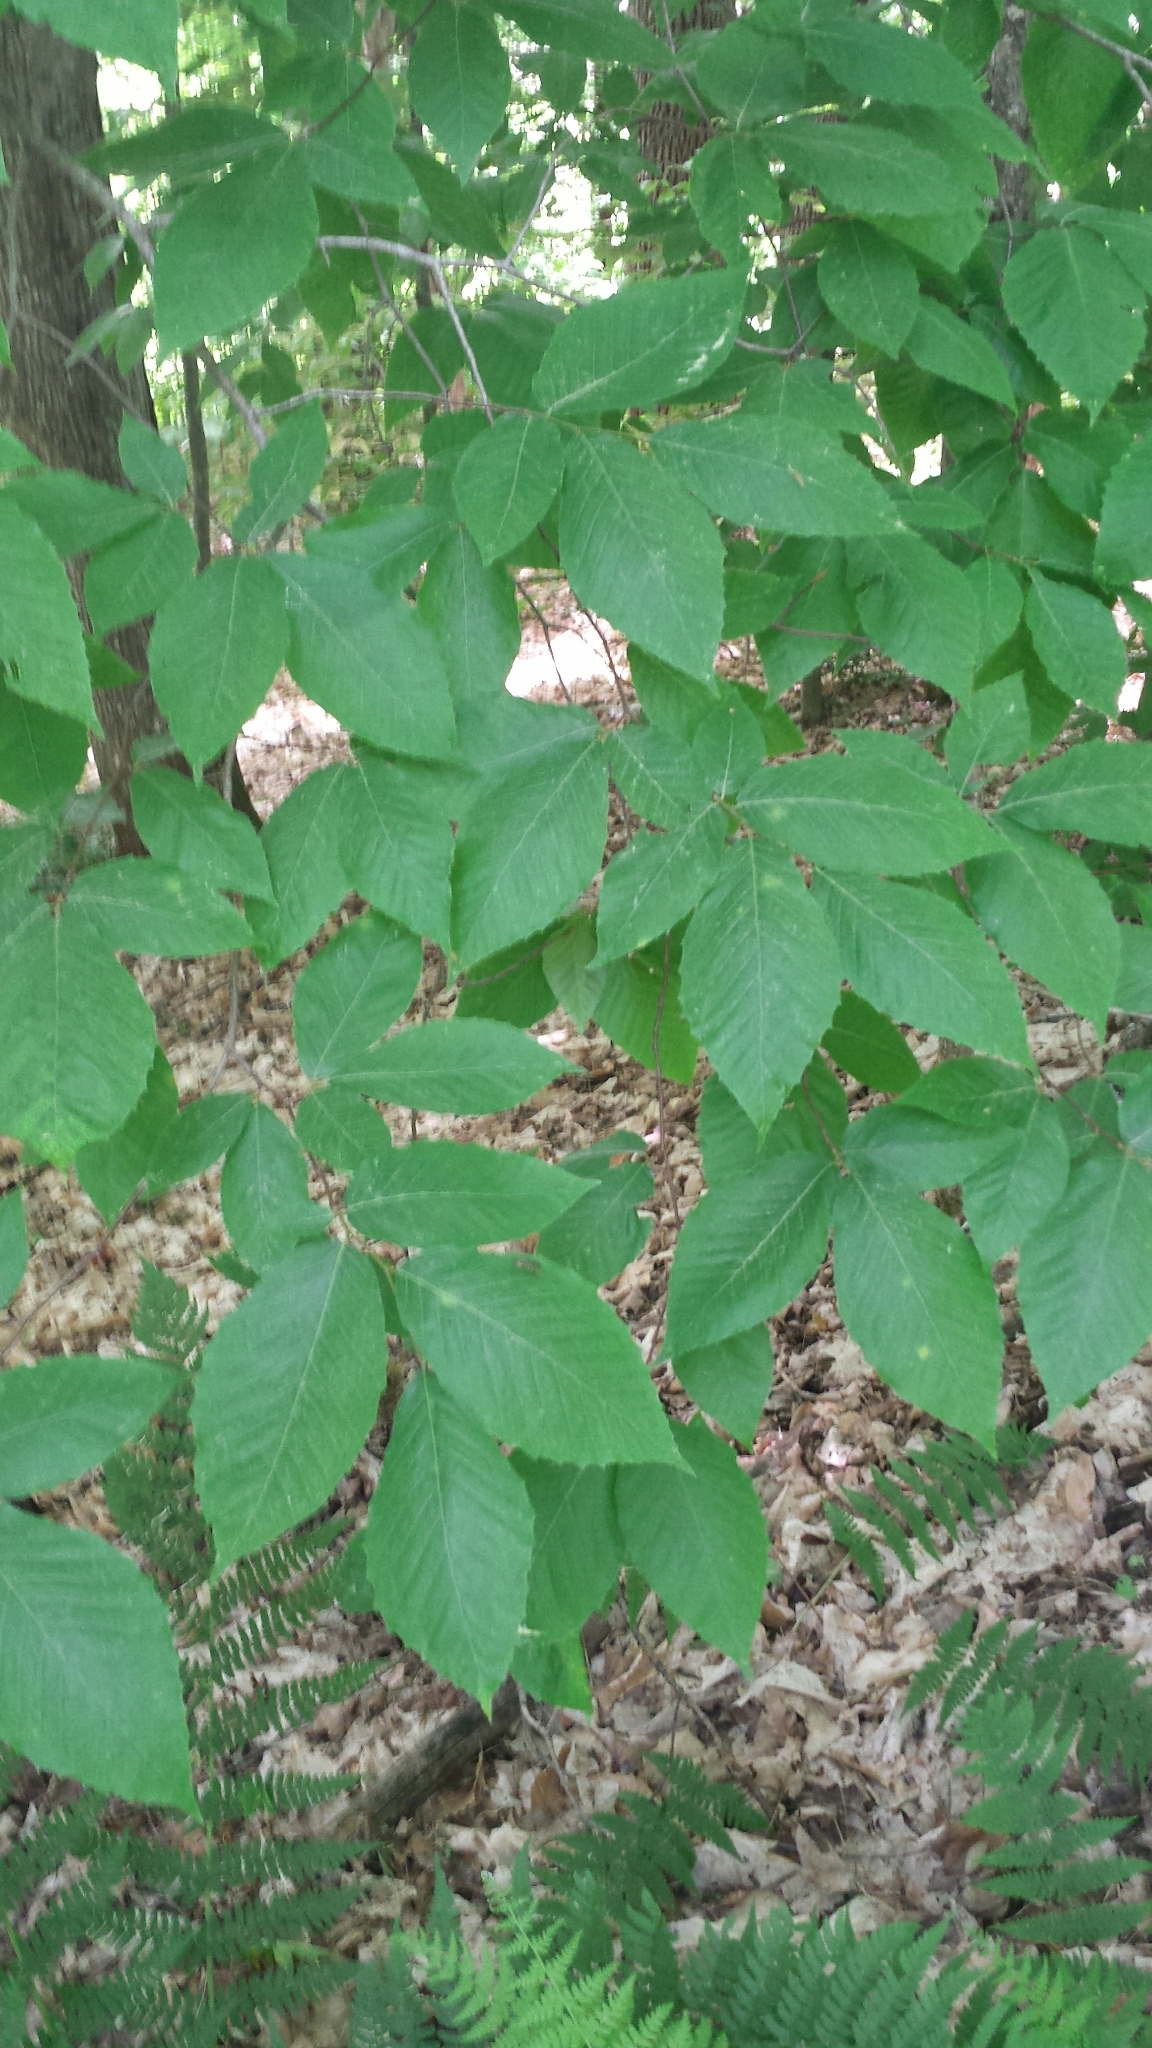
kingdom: Plantae
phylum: Tracheophyta
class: Magnoliopsida
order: Fagales
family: Fagaceae
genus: Fagus
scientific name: Fagus grandifolia
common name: American beech
